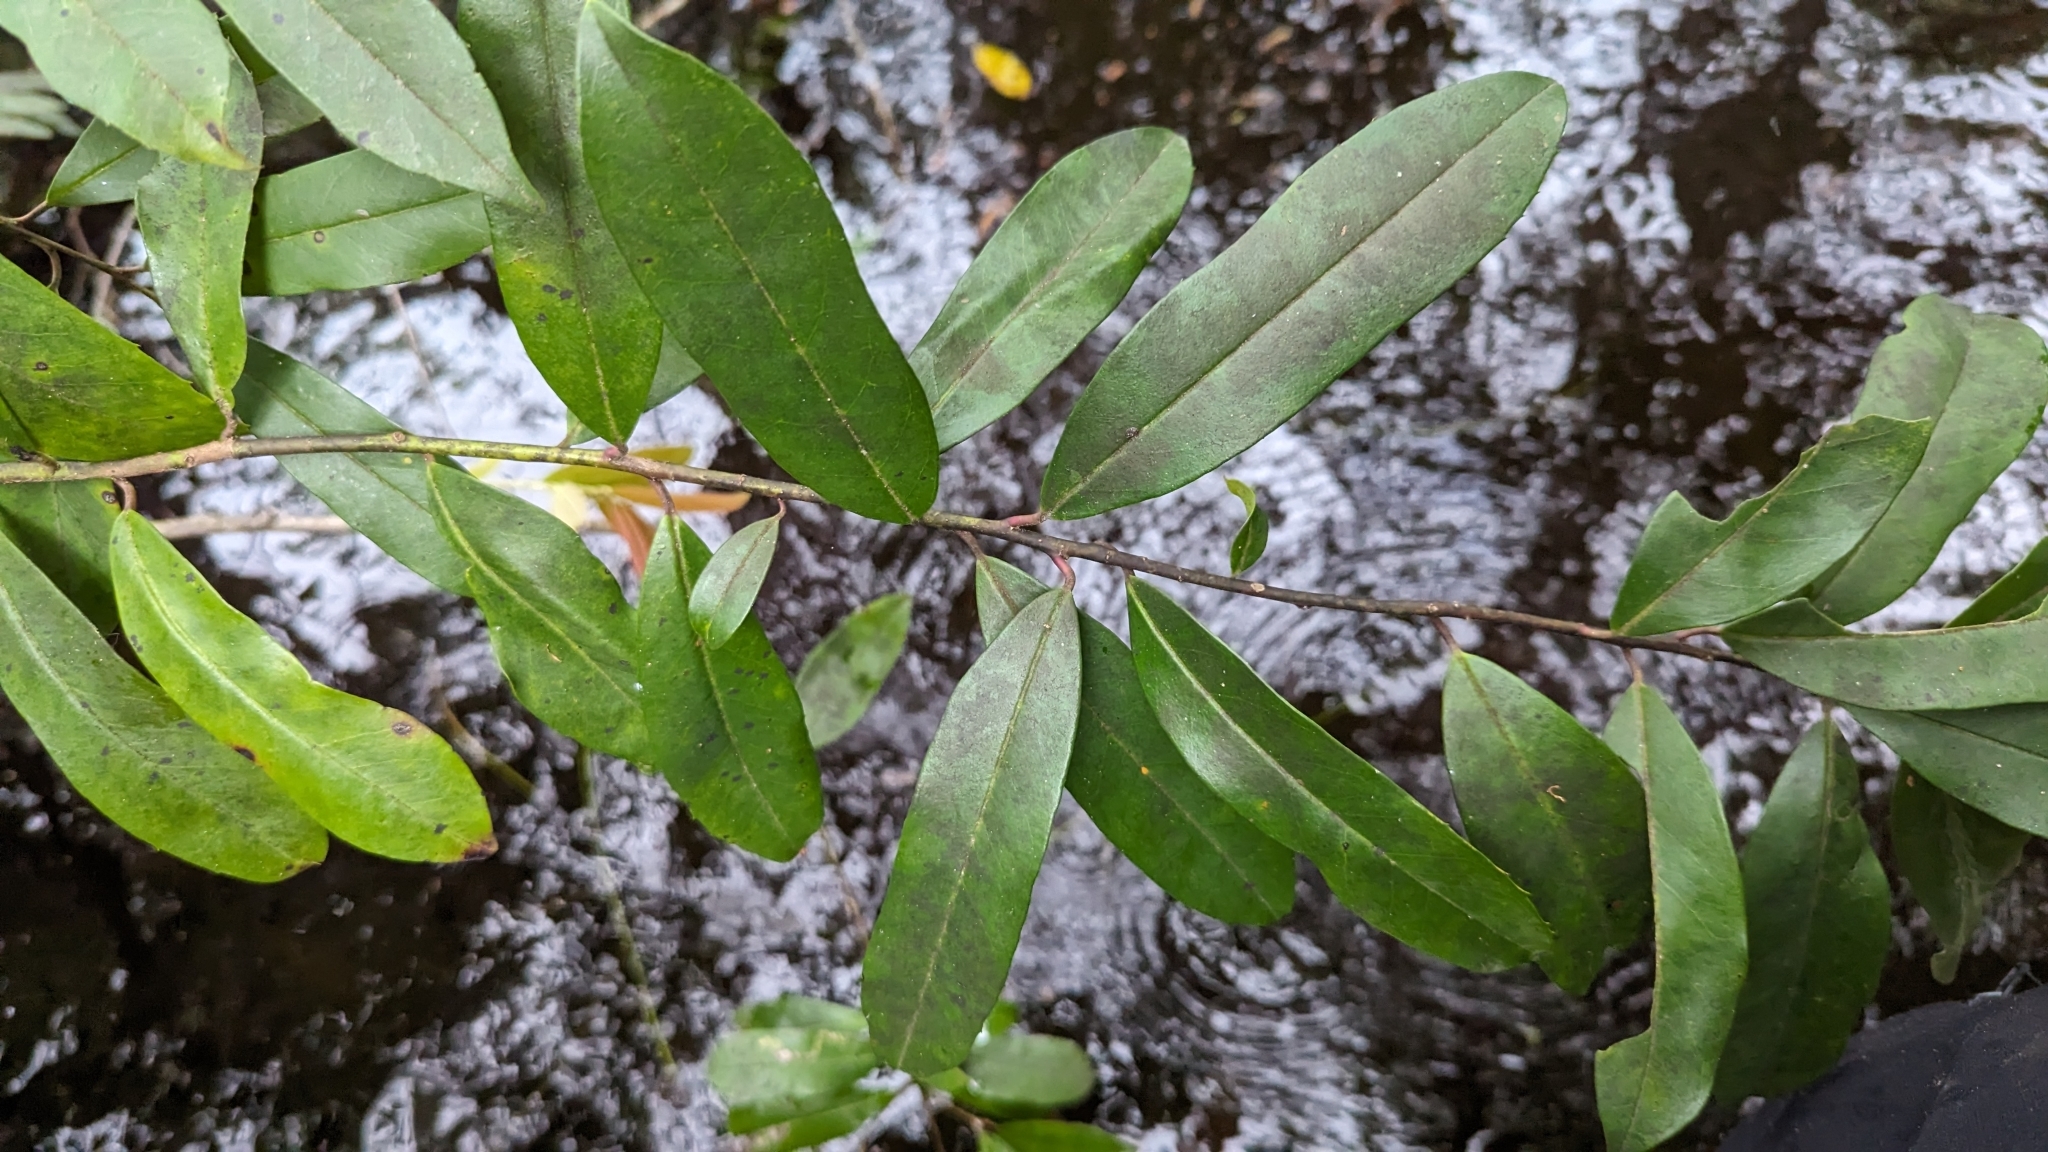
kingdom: Plantae
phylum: Tracheophyta
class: Magnoliopsida
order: Aquifoliales
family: Aquifoliaceae
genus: Ilex
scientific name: Ilex cassine
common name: Dahoon
